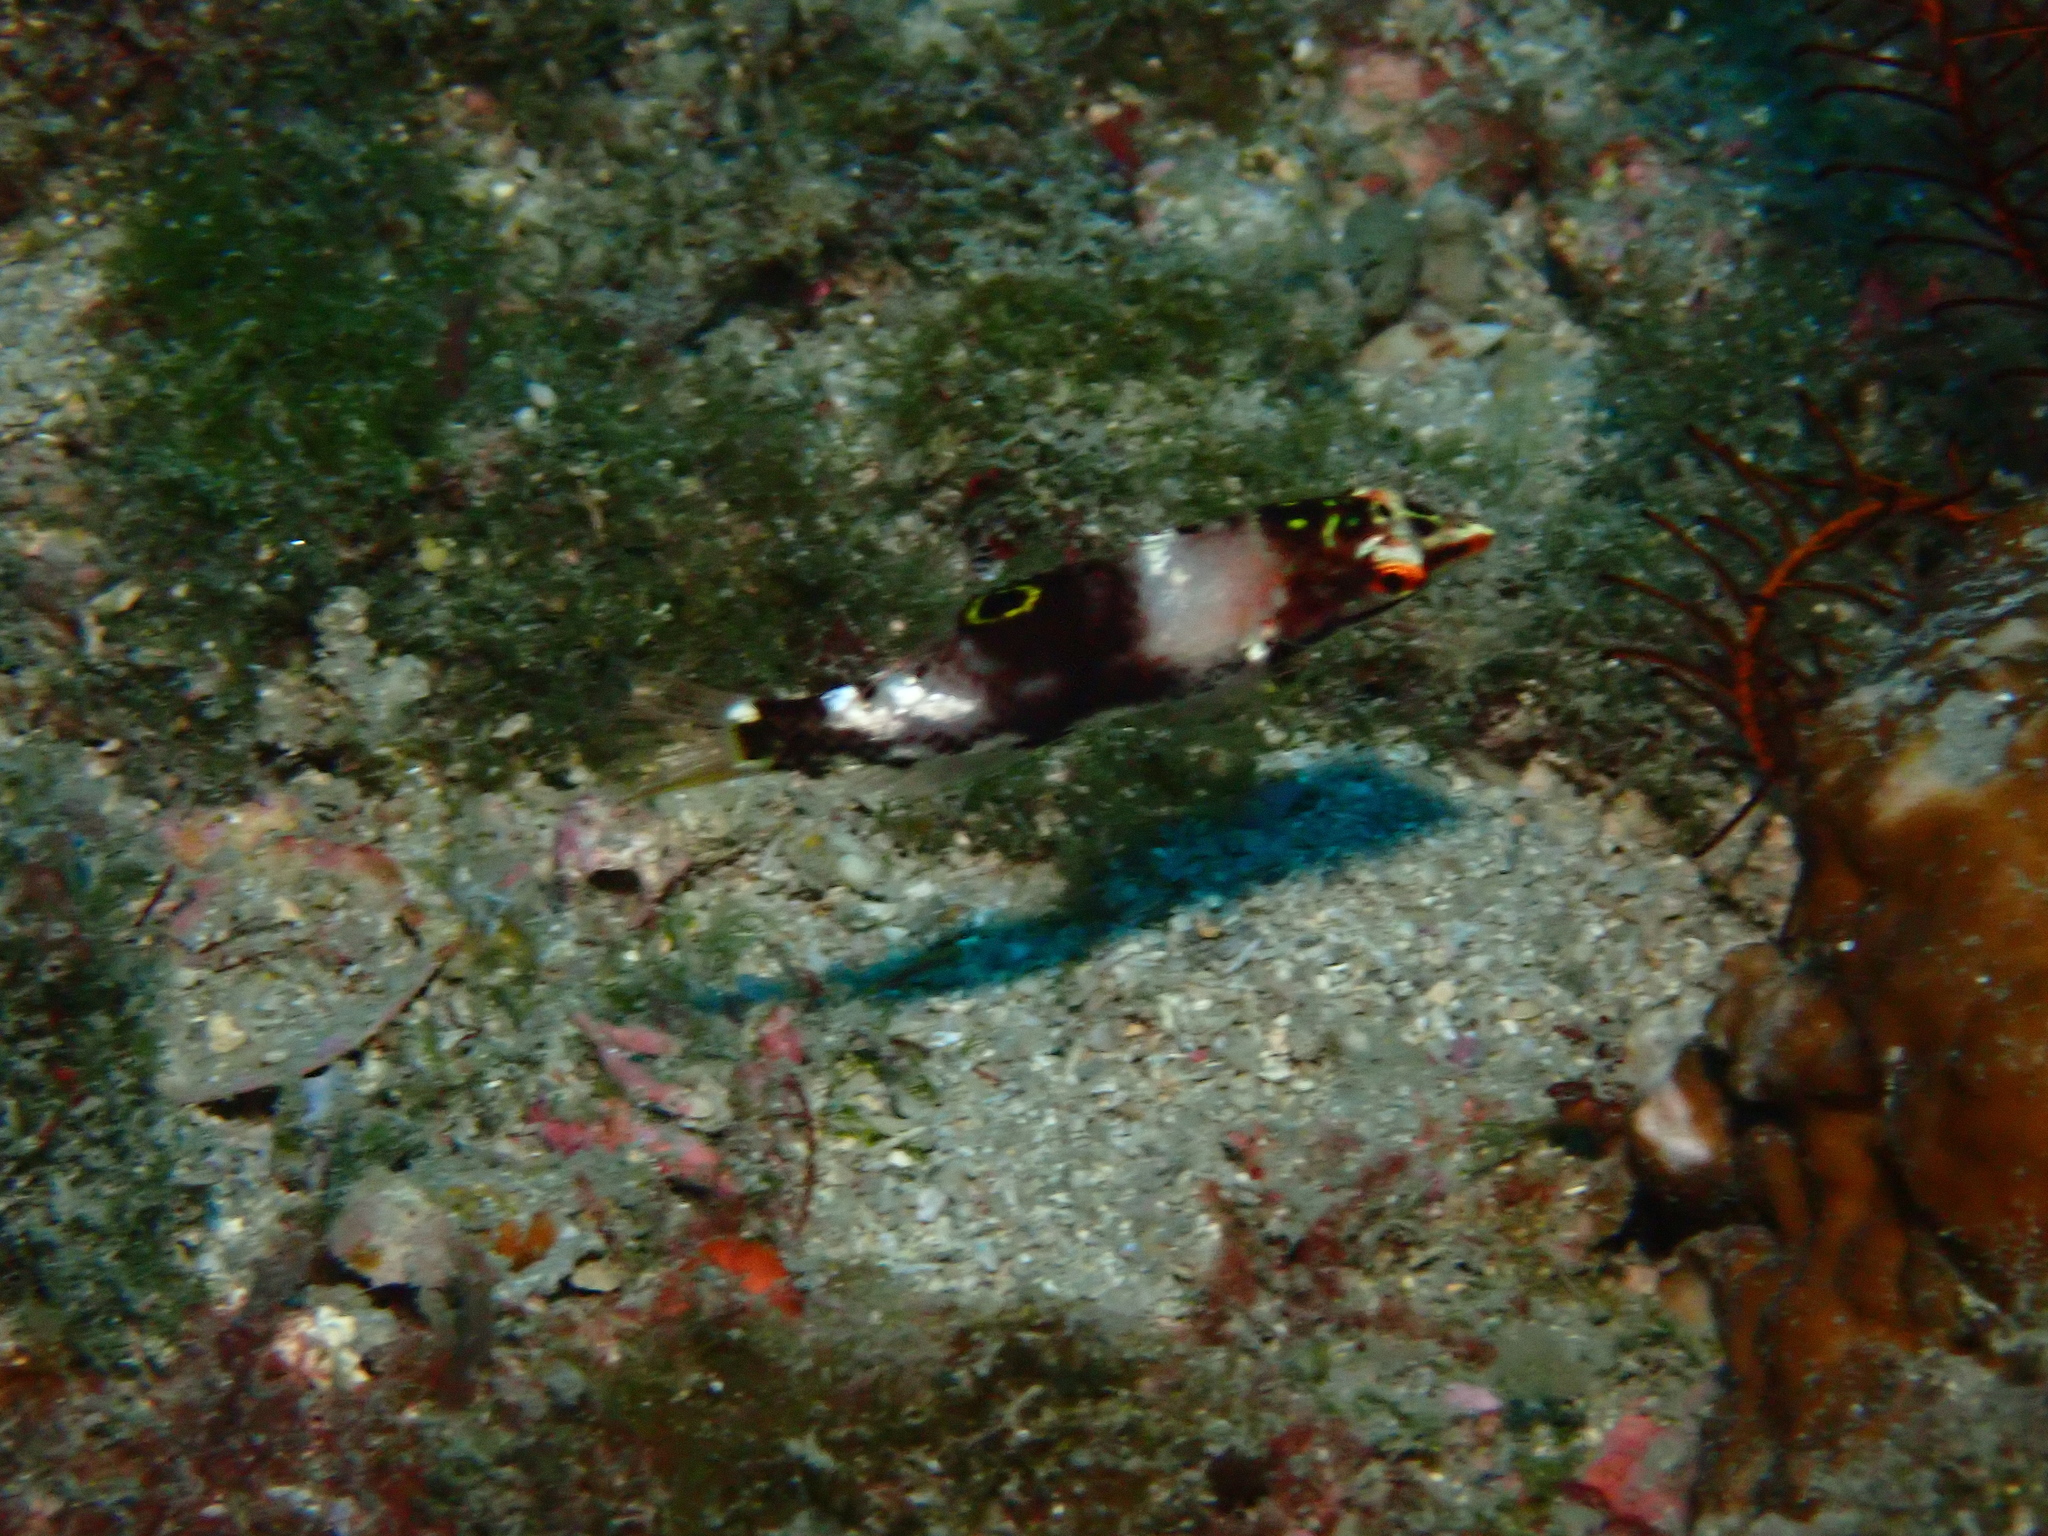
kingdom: Animalia
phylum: Chordata
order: Perciformes
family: Labridae
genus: Halichoeres
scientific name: Halichoeres hortulanus
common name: Checkerboard wrasse
